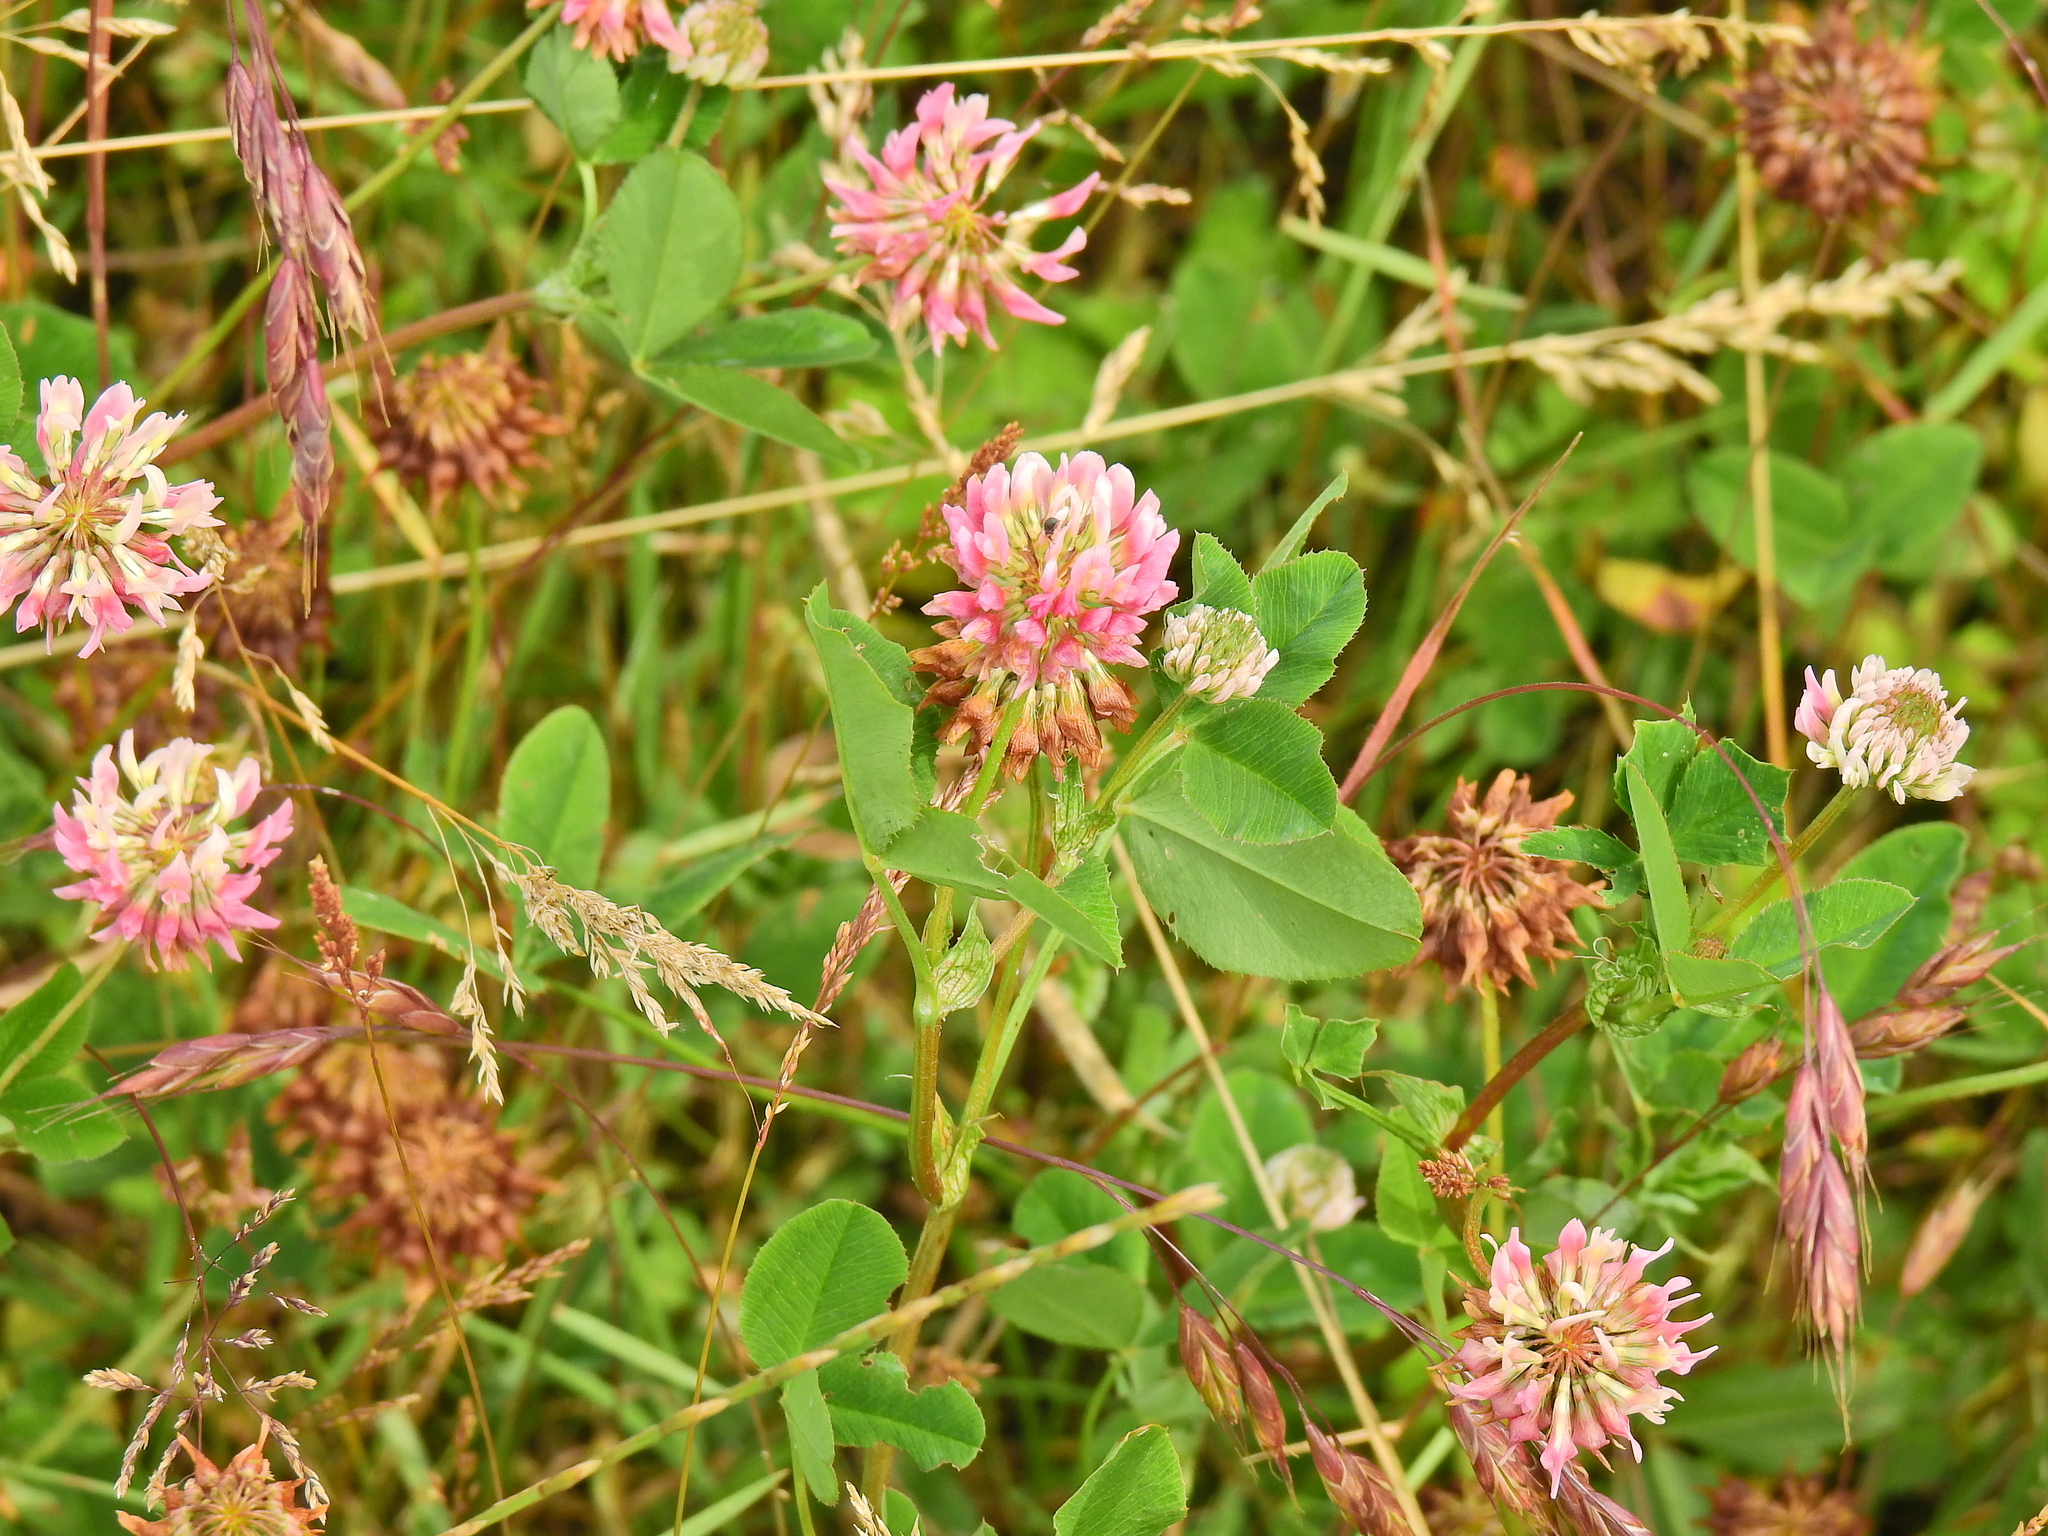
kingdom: Plantae
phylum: Tracheophyta
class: Magnoliopsida
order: Fabales
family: Fabaceae
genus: Trifolium
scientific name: Trifolium hybridum
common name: Alsike clover
